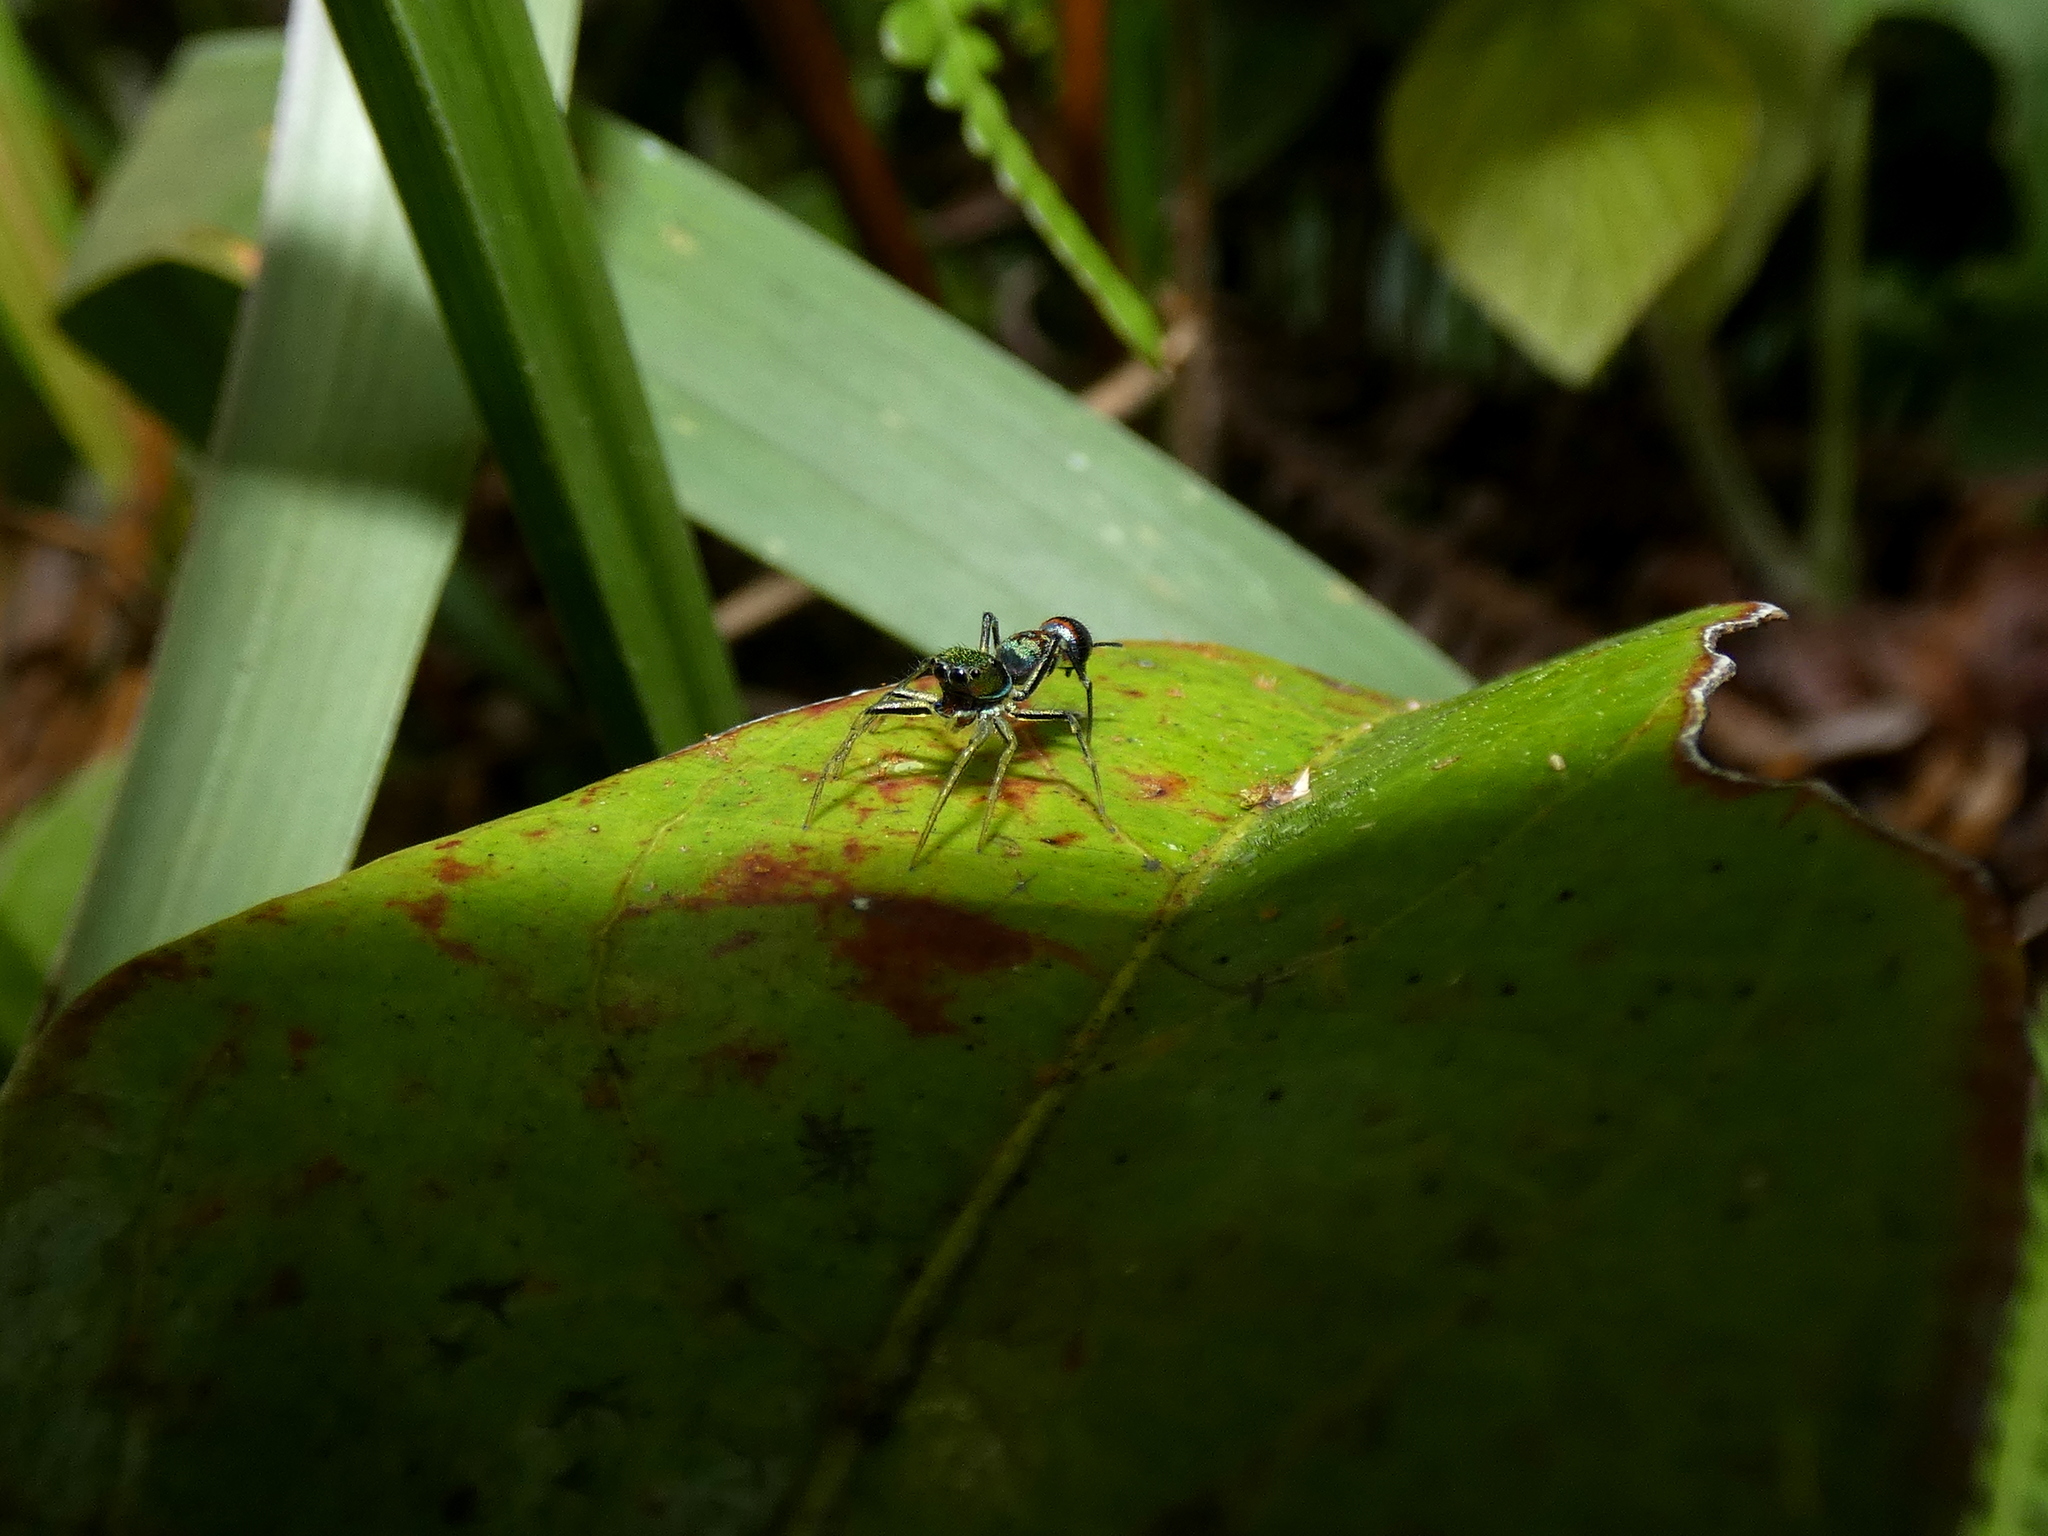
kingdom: Animalia
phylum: Arthropoda
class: Arachnida
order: Araneae
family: Salticidae
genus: Orsima
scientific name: Orsima ichneumon
